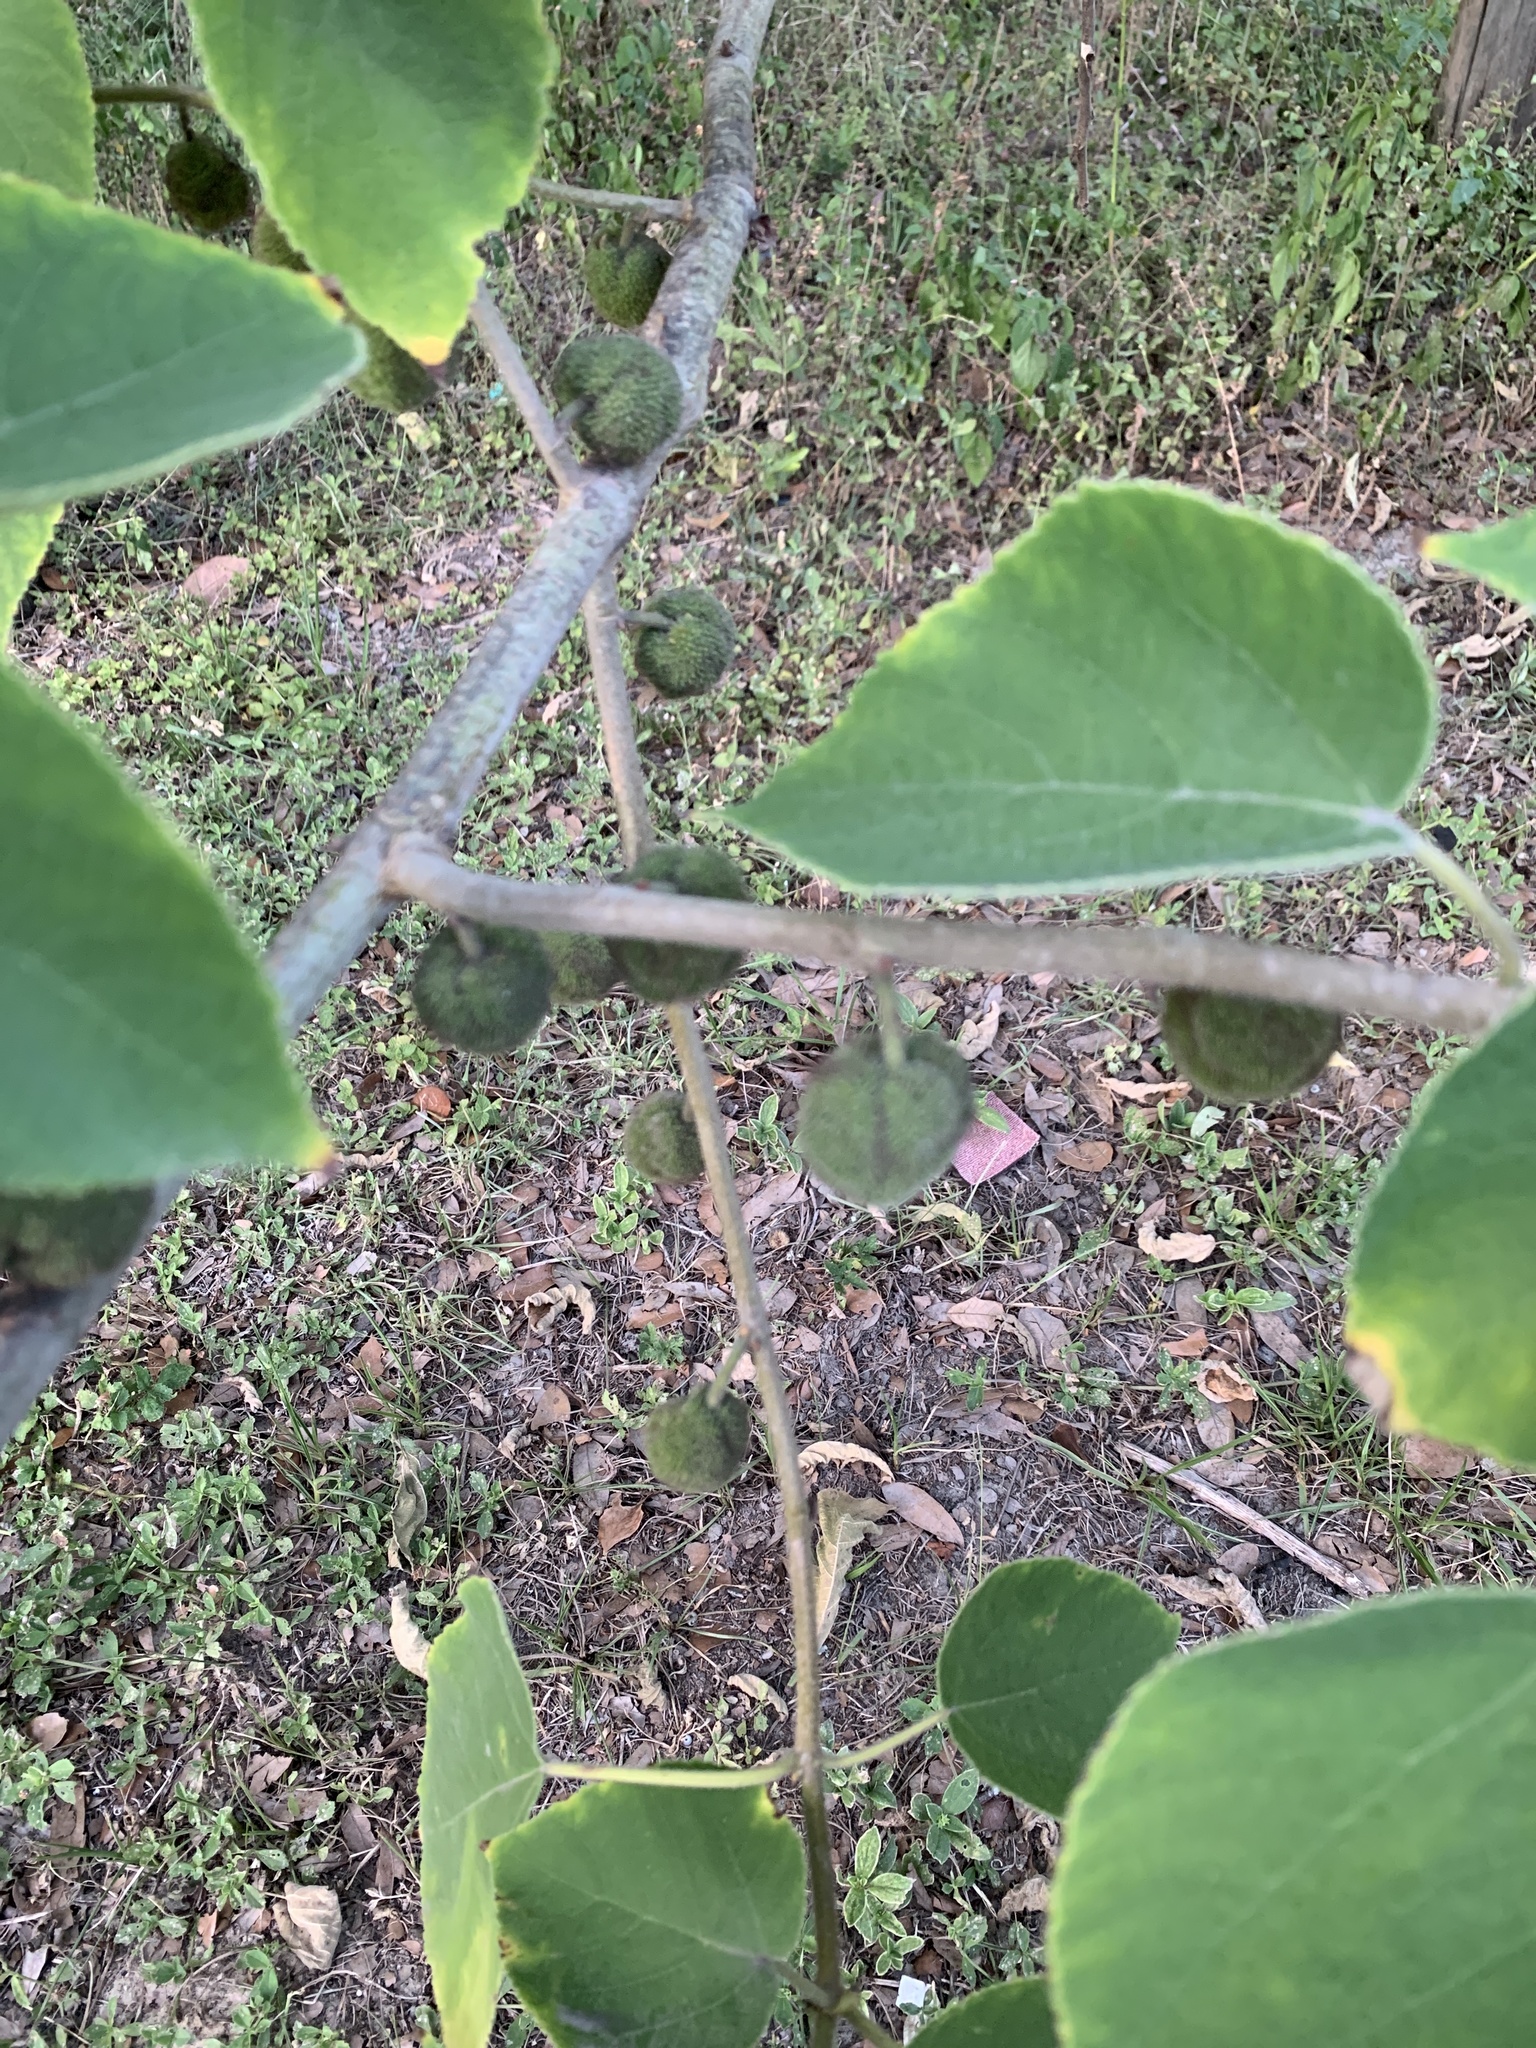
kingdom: Plantae
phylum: Tracheophyta
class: Magnoliopsida
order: Rosales
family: Moraceae
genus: Broussonetia
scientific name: Broussonetia papyrifera
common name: Paper mulberry
